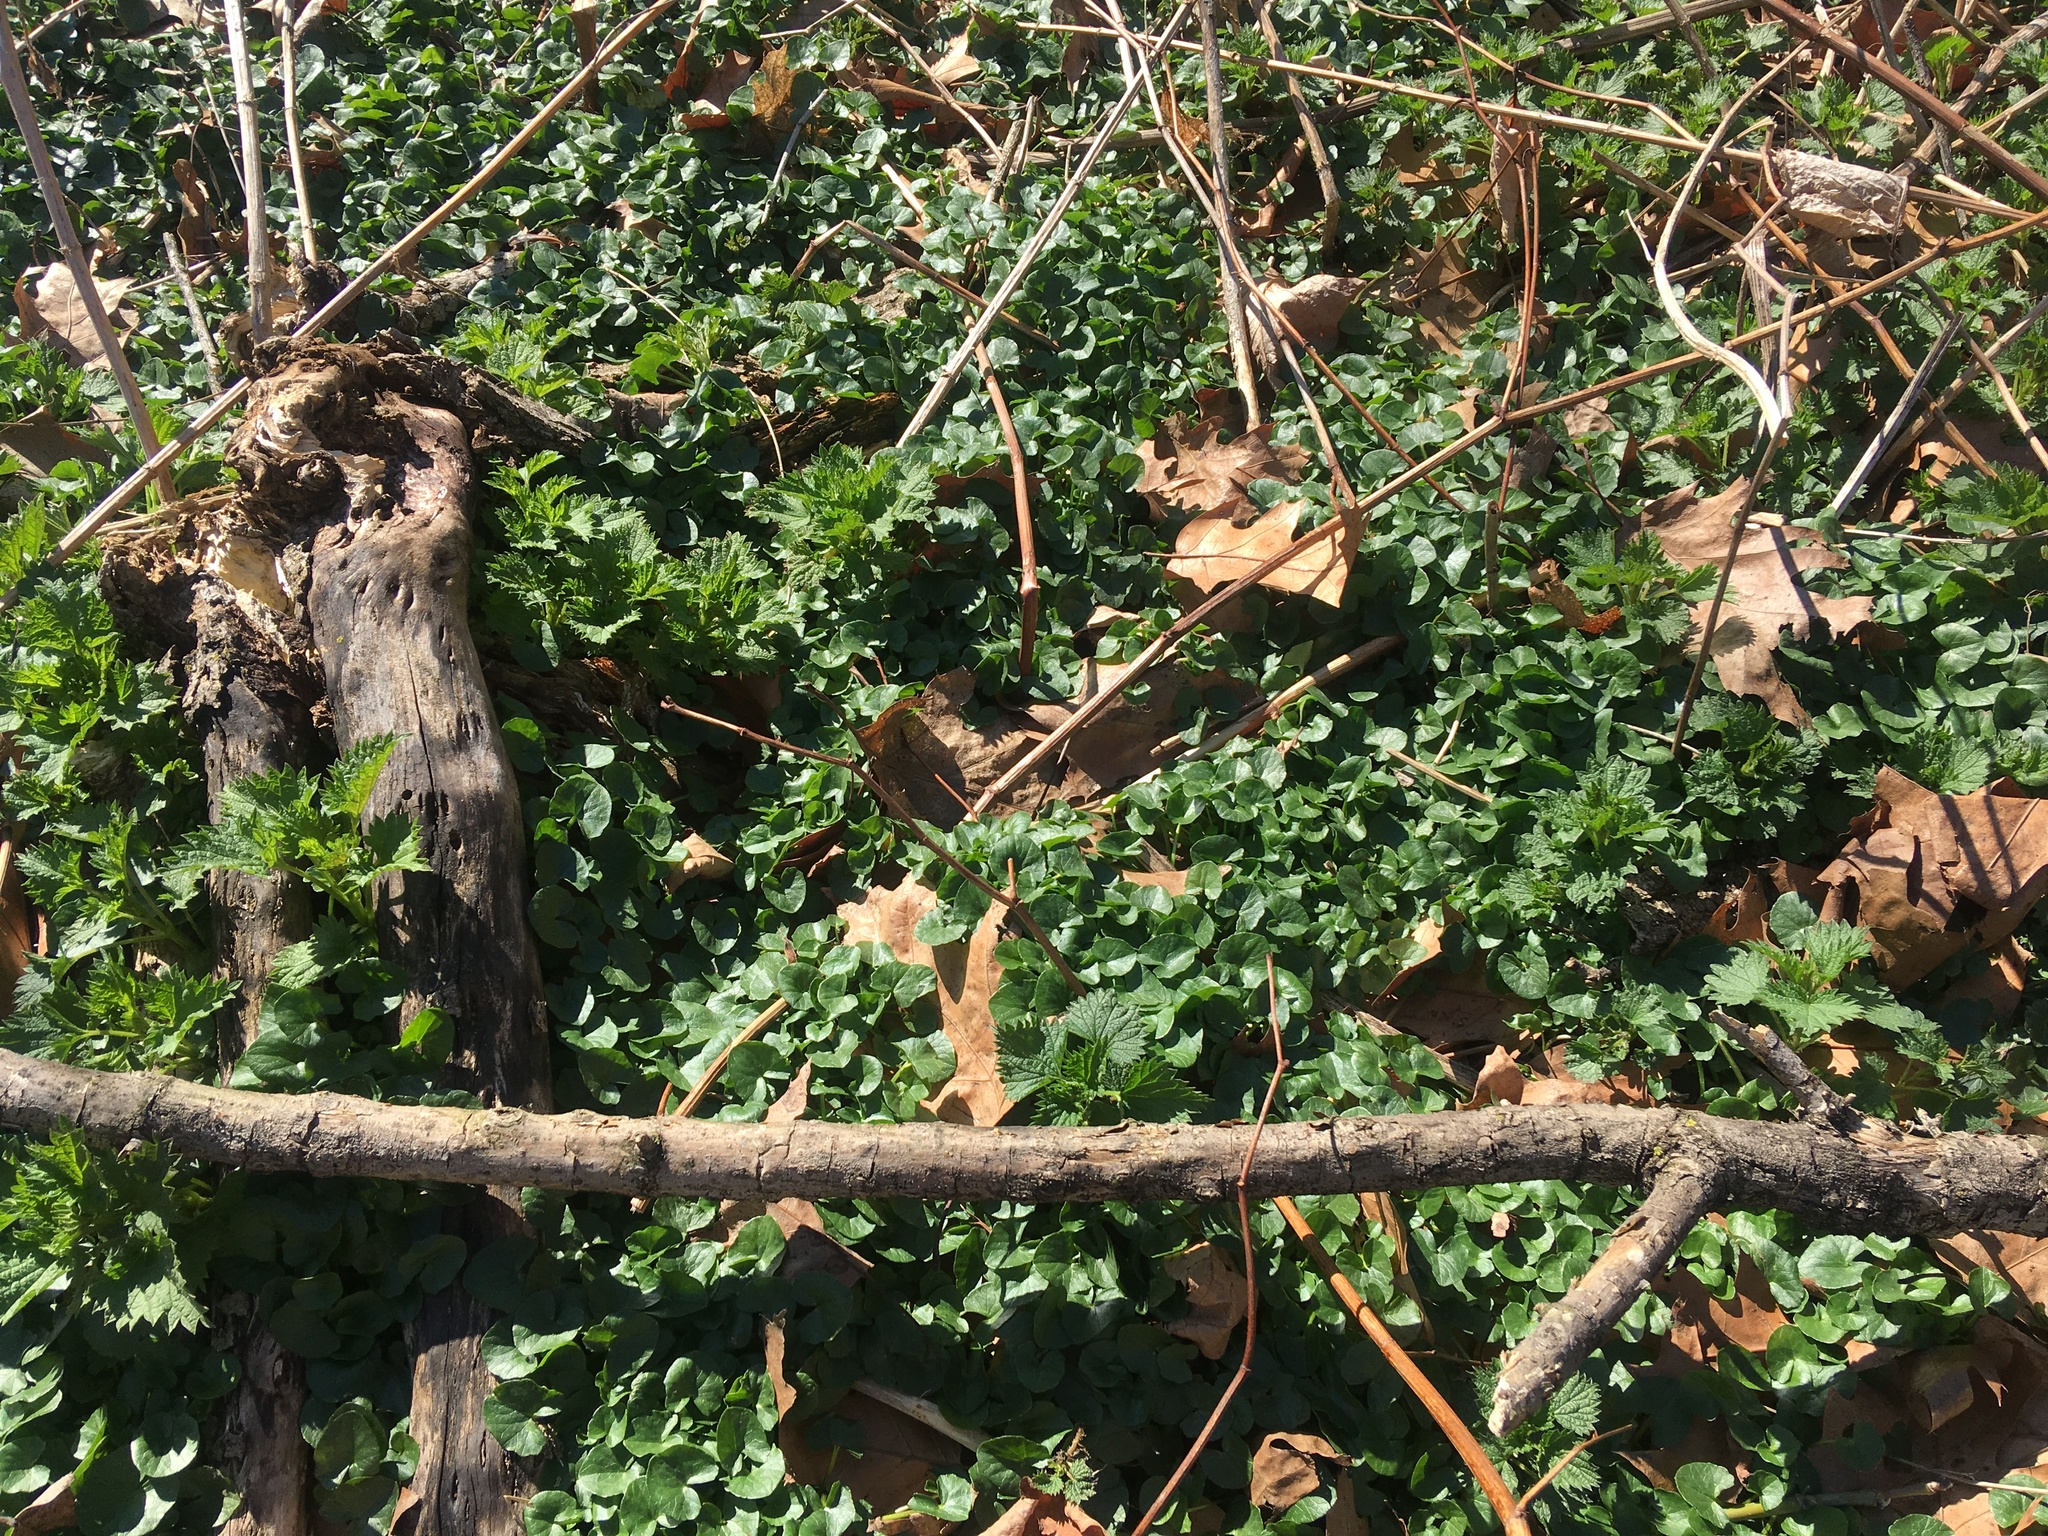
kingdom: Plantae
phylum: Tracheophyta
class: Magnoliopsida
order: Ranunculales
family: Ranunculaceae
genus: Ficaria
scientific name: Ficaria verna
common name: Lesser celandine
